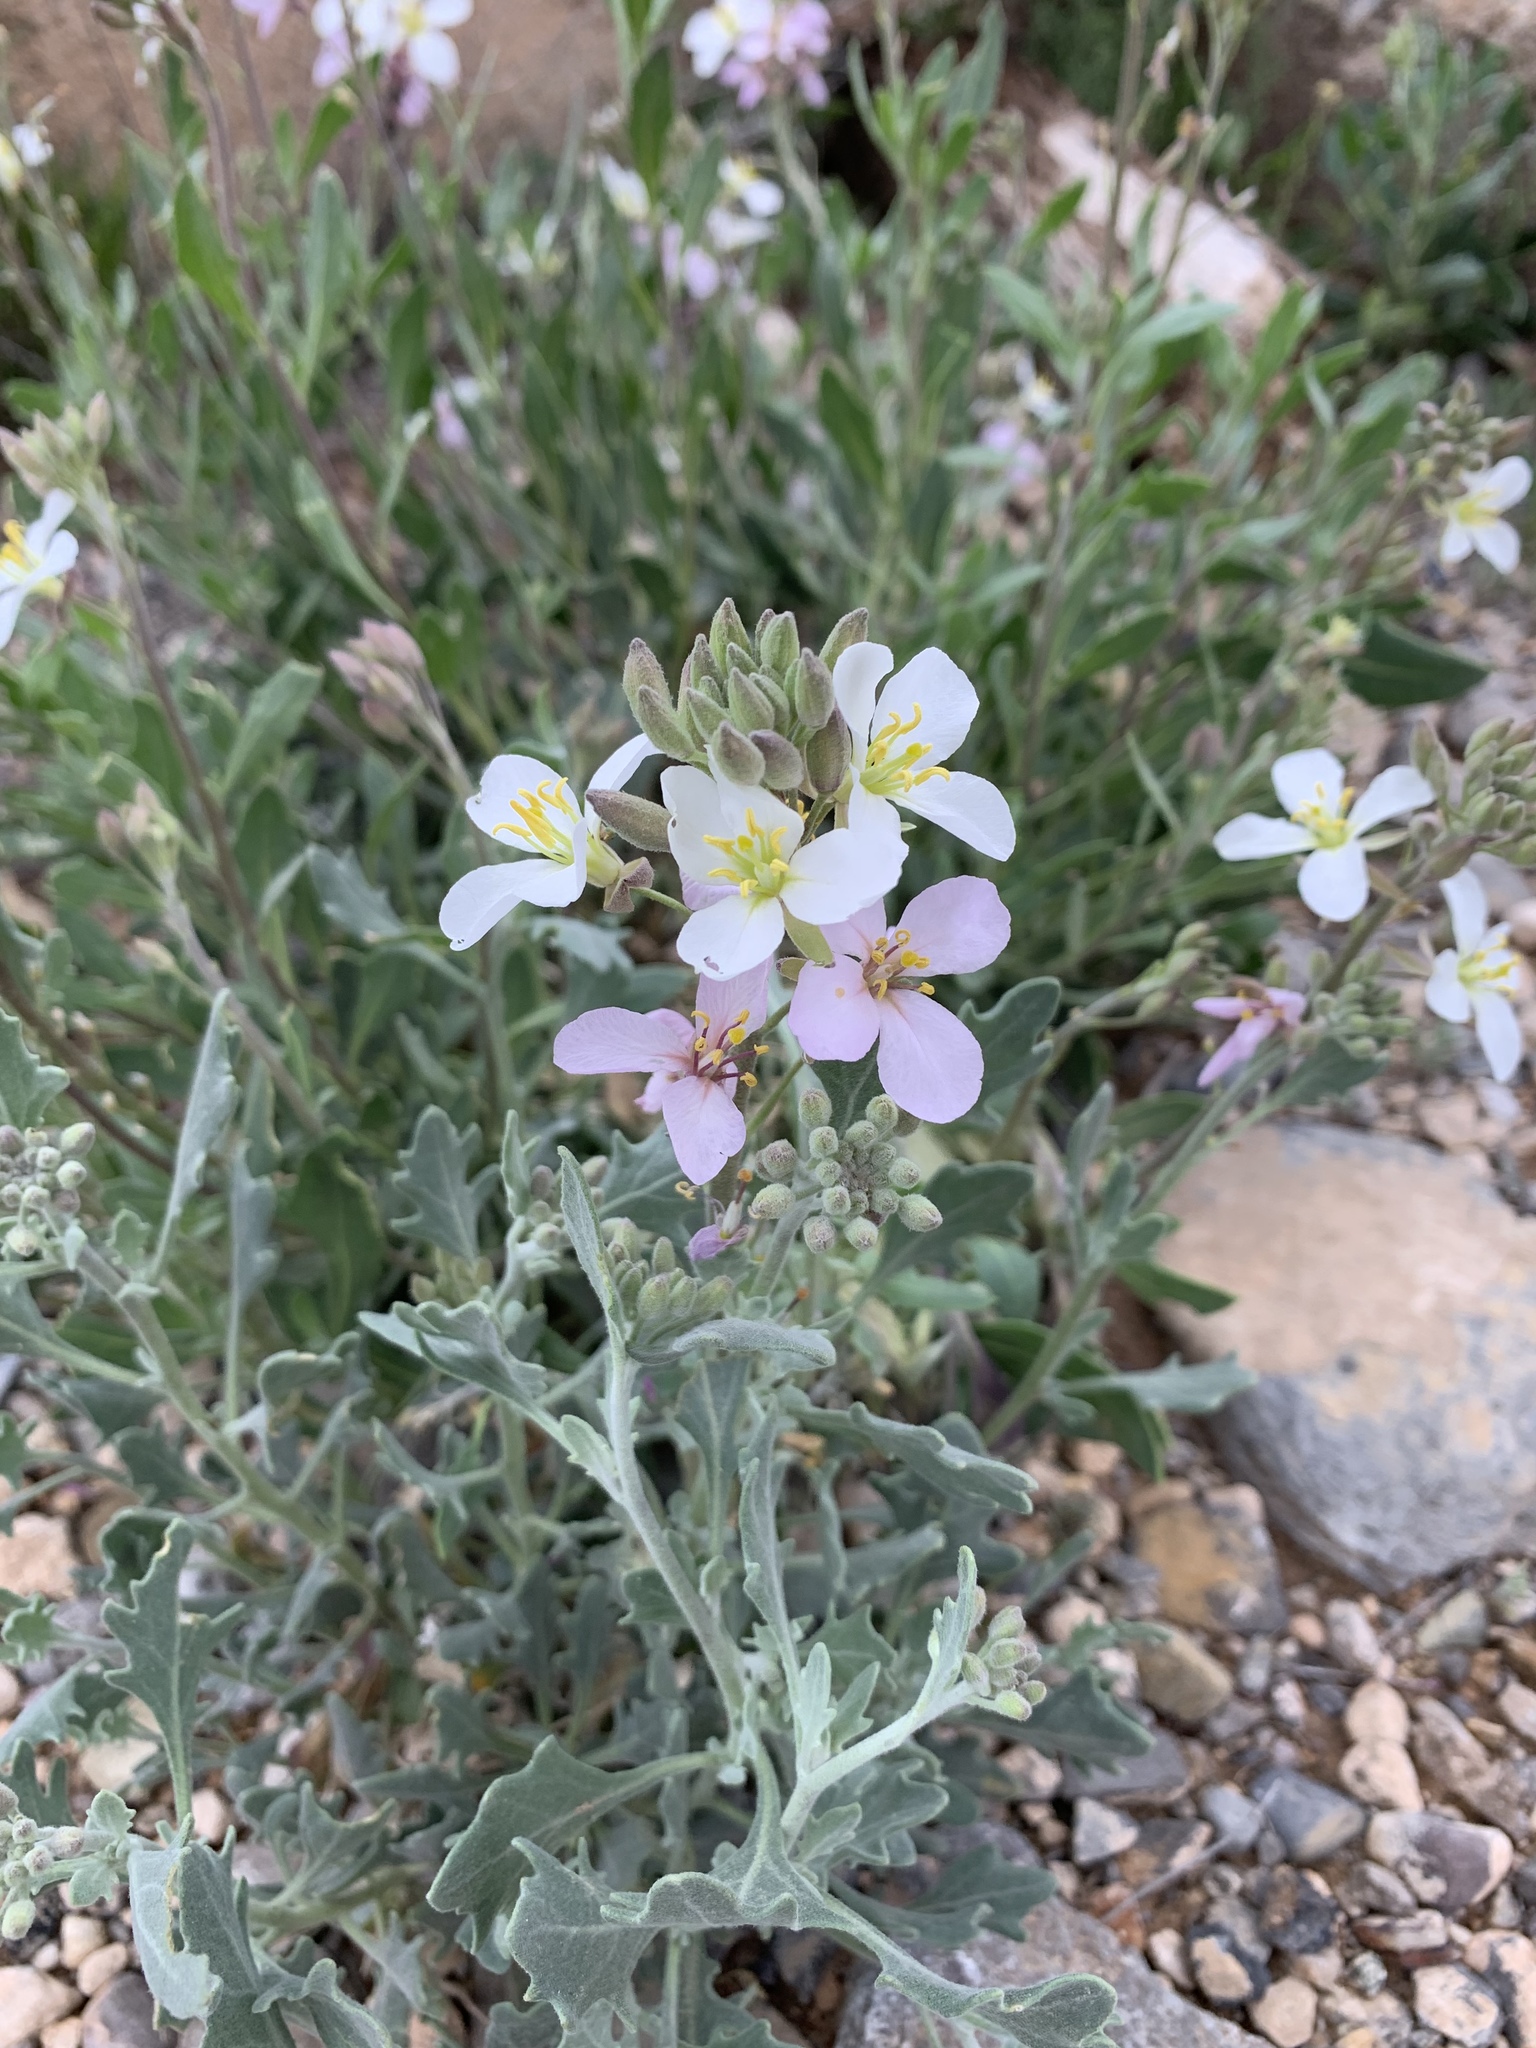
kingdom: Plantae
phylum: Tracheophyta
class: Magnoliopsida
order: Brassicales
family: Brassicaceae
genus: Nerisyrenia
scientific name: Nerisyrenia camporum
